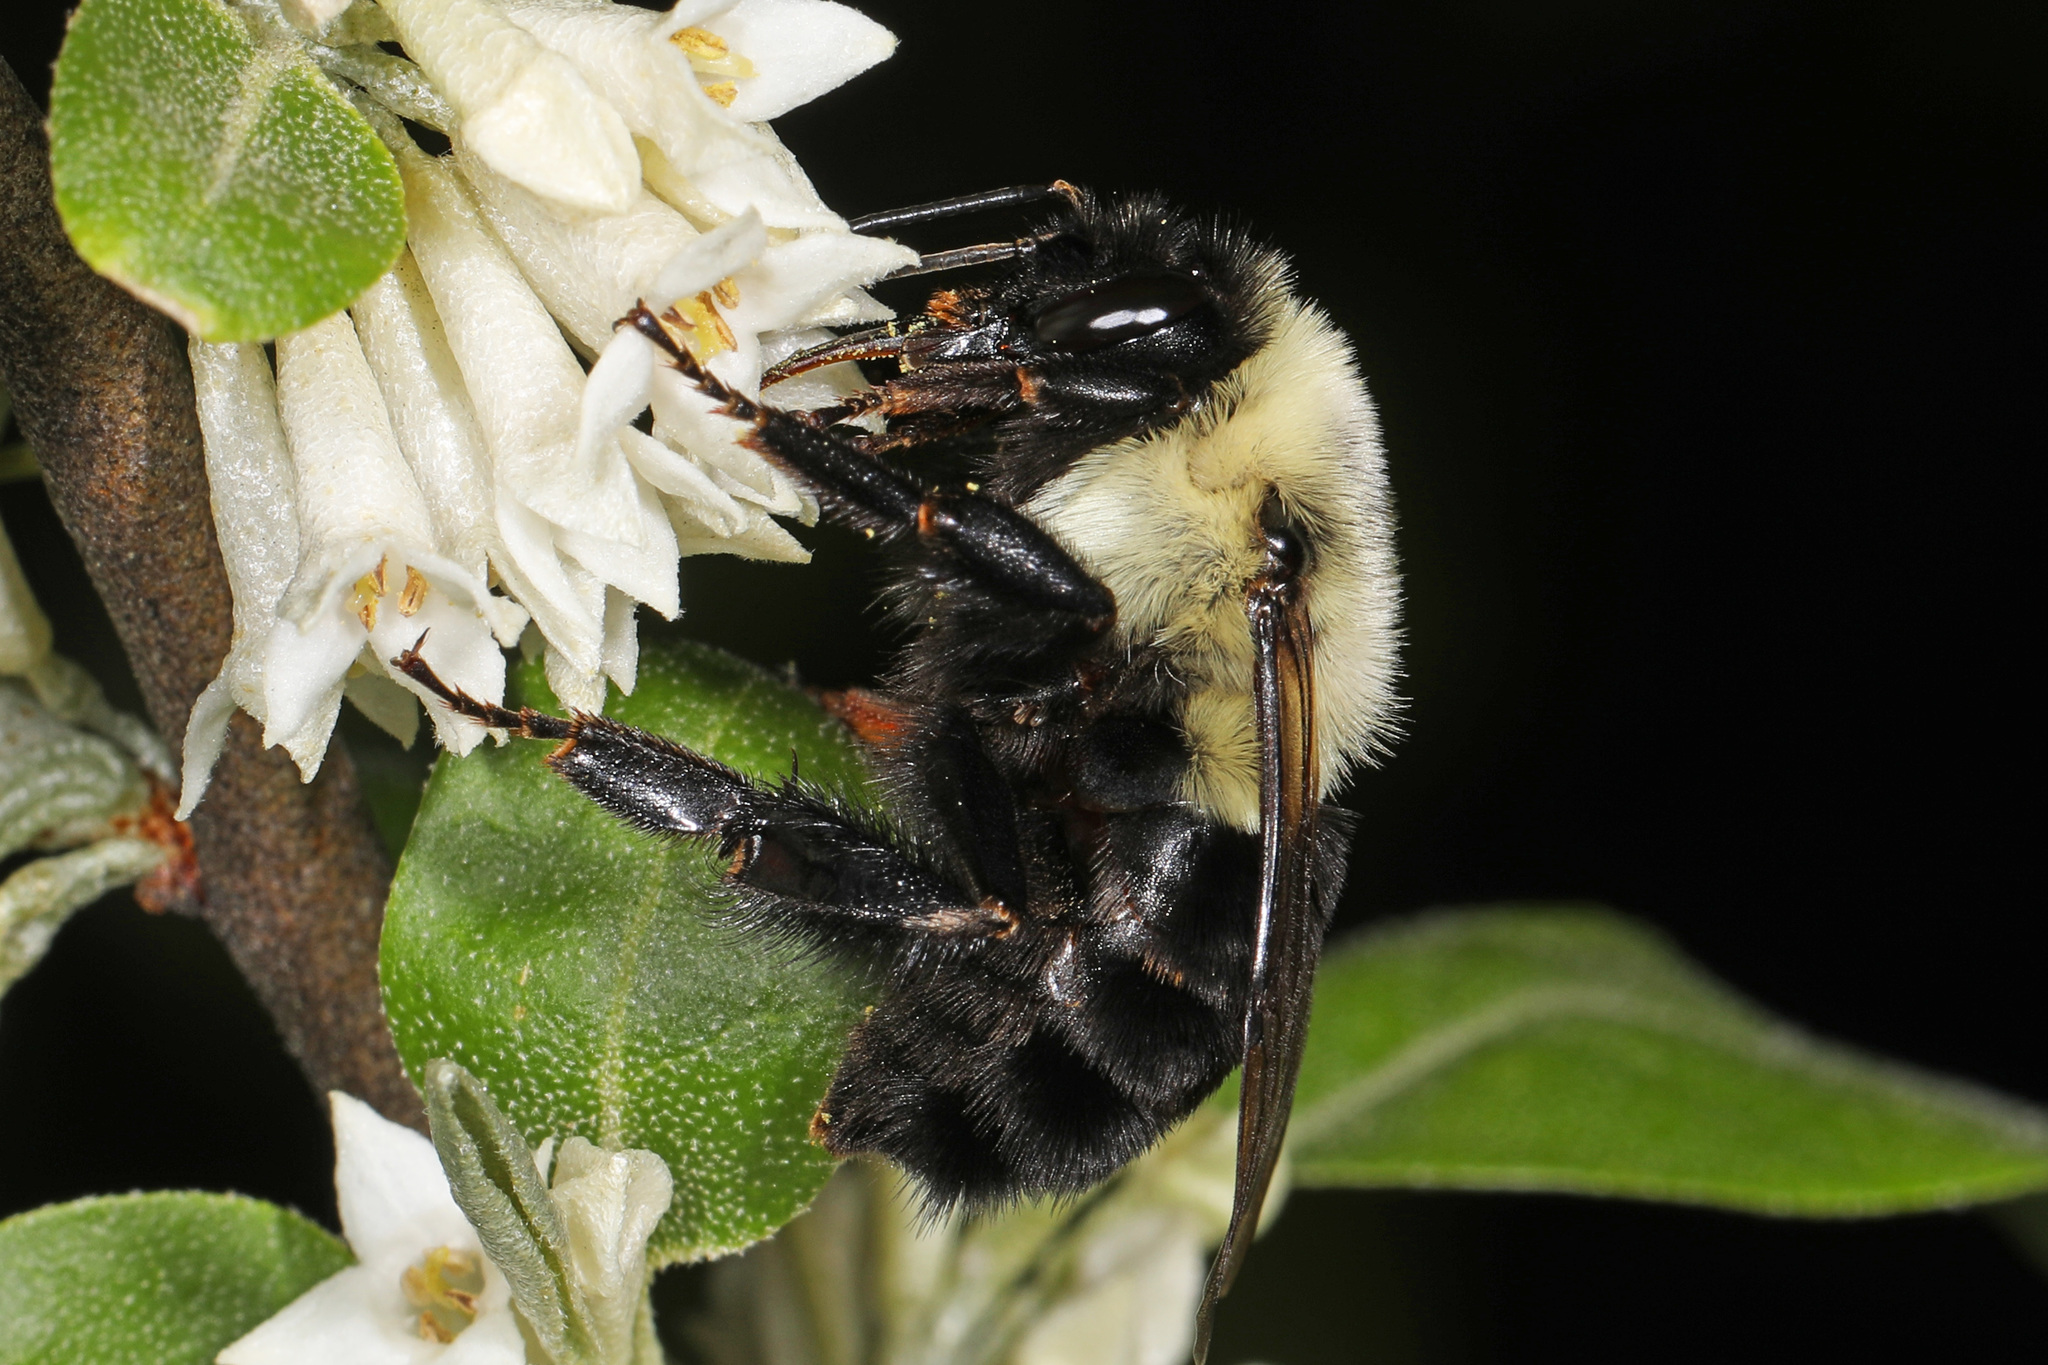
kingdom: Animalia
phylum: Arthropoda
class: Insecta
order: Hymenoptera
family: Apidae
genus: Bombus
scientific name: Bombus impatiens
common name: Common eastern bumble bee
